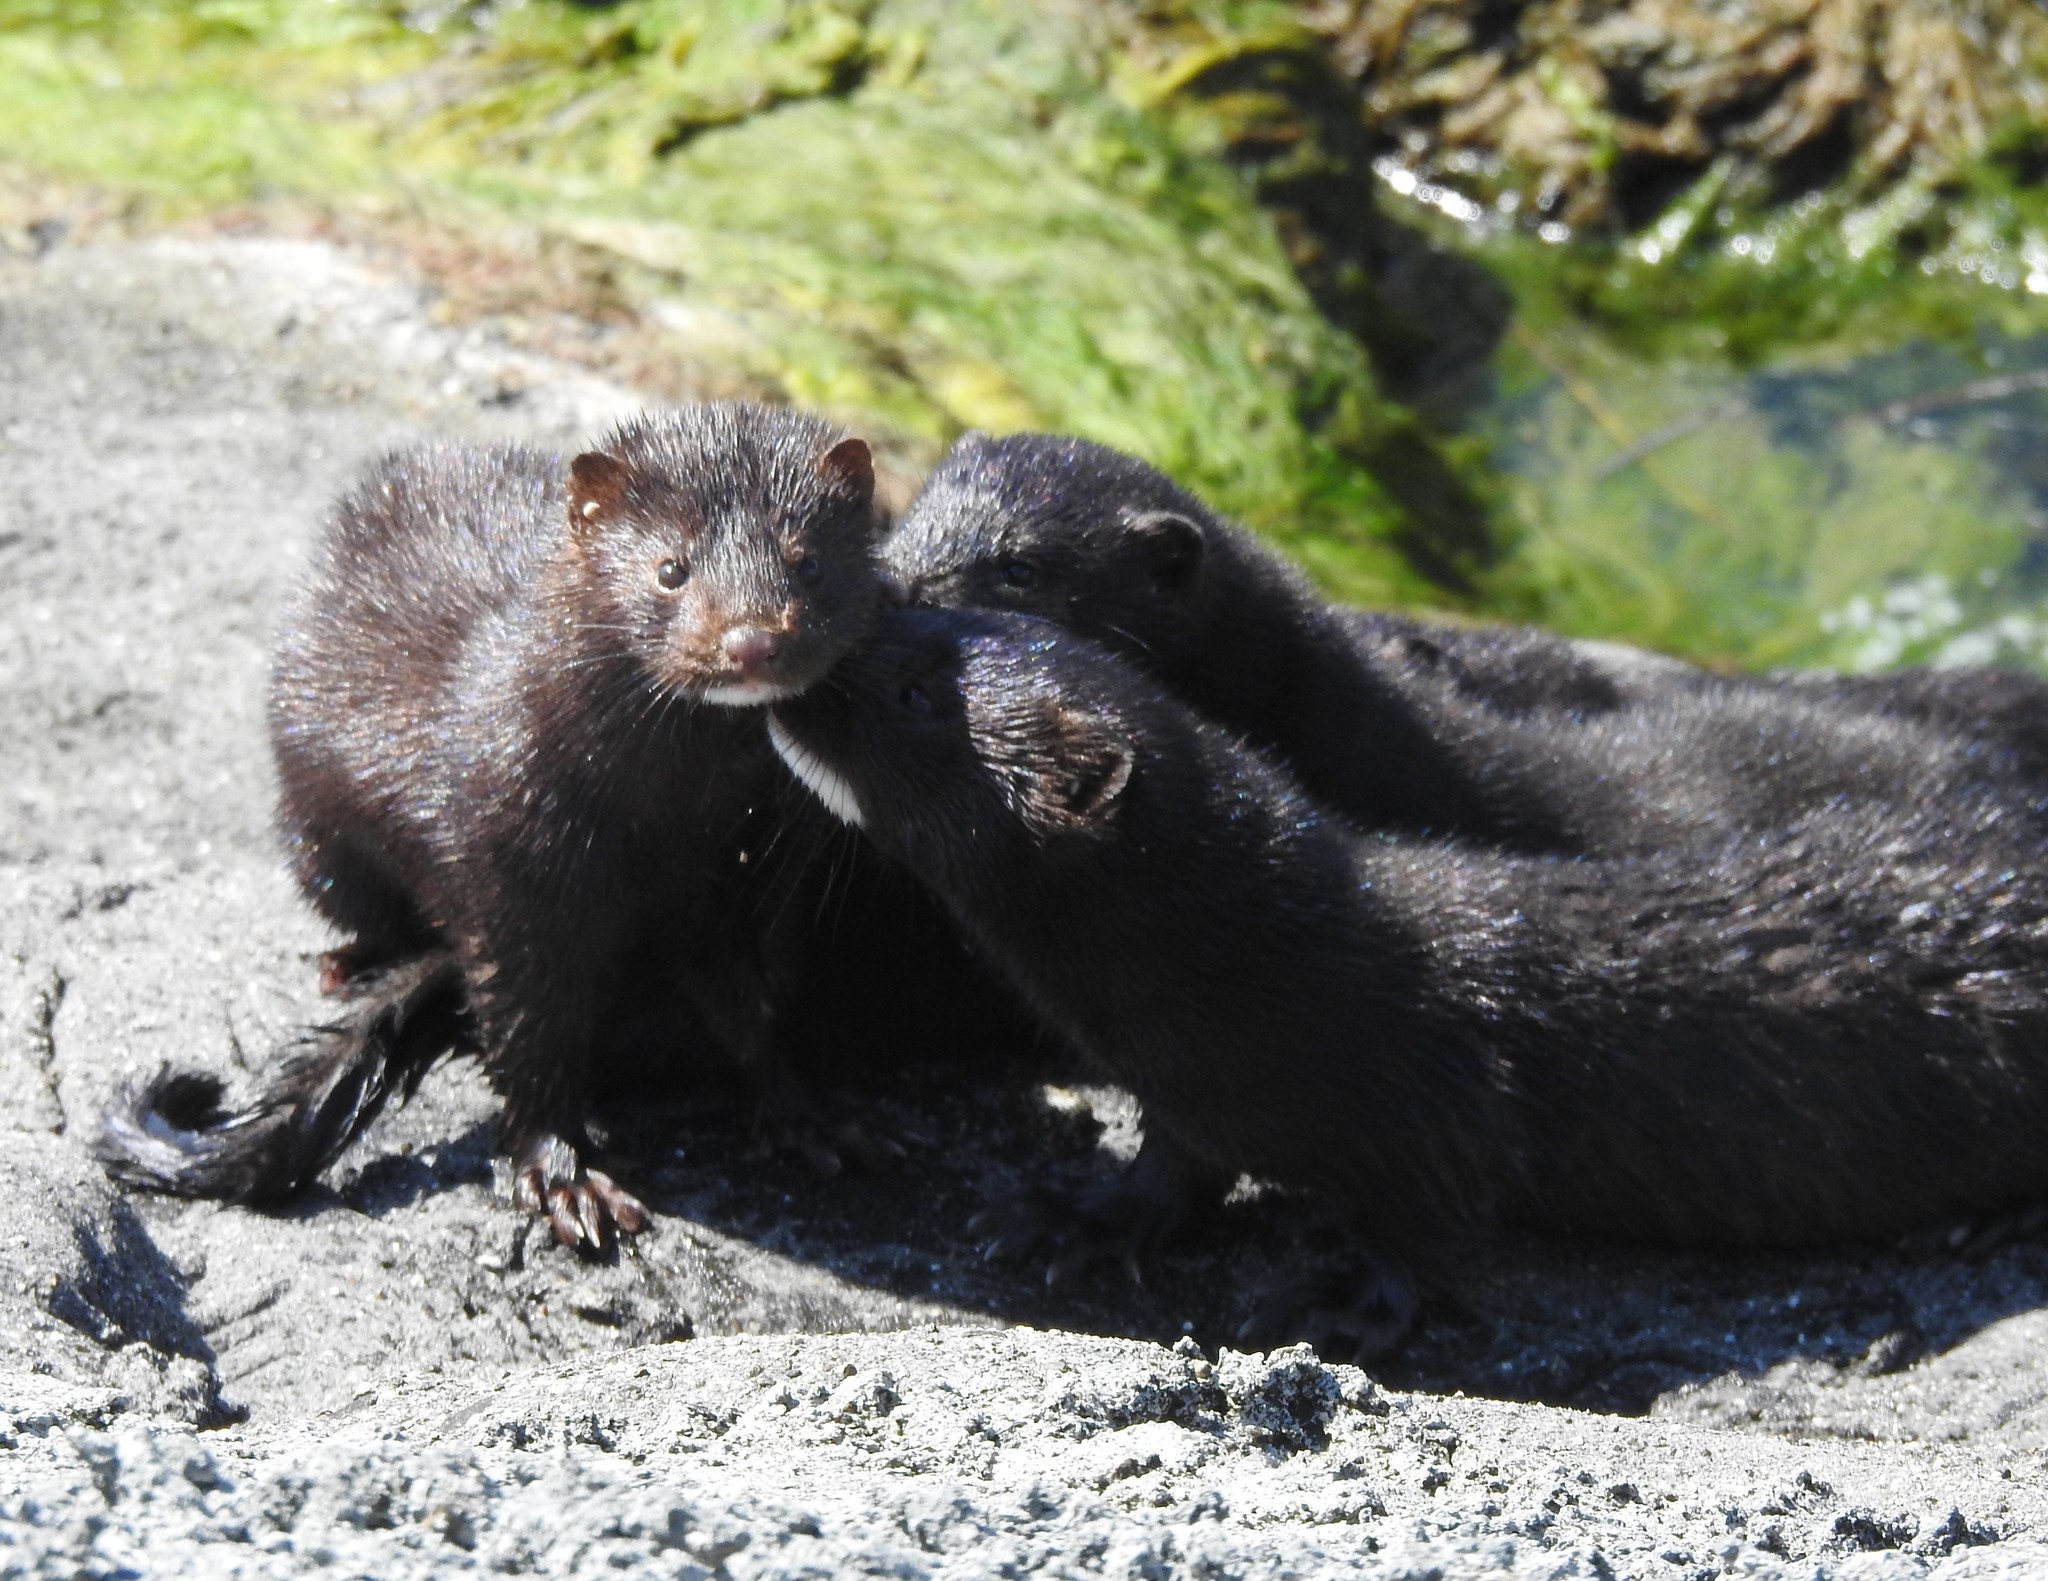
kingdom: Animalia
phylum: Chordata
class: Mammalia
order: Carnivora
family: Mustelidae
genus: Mustela
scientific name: Mustela
